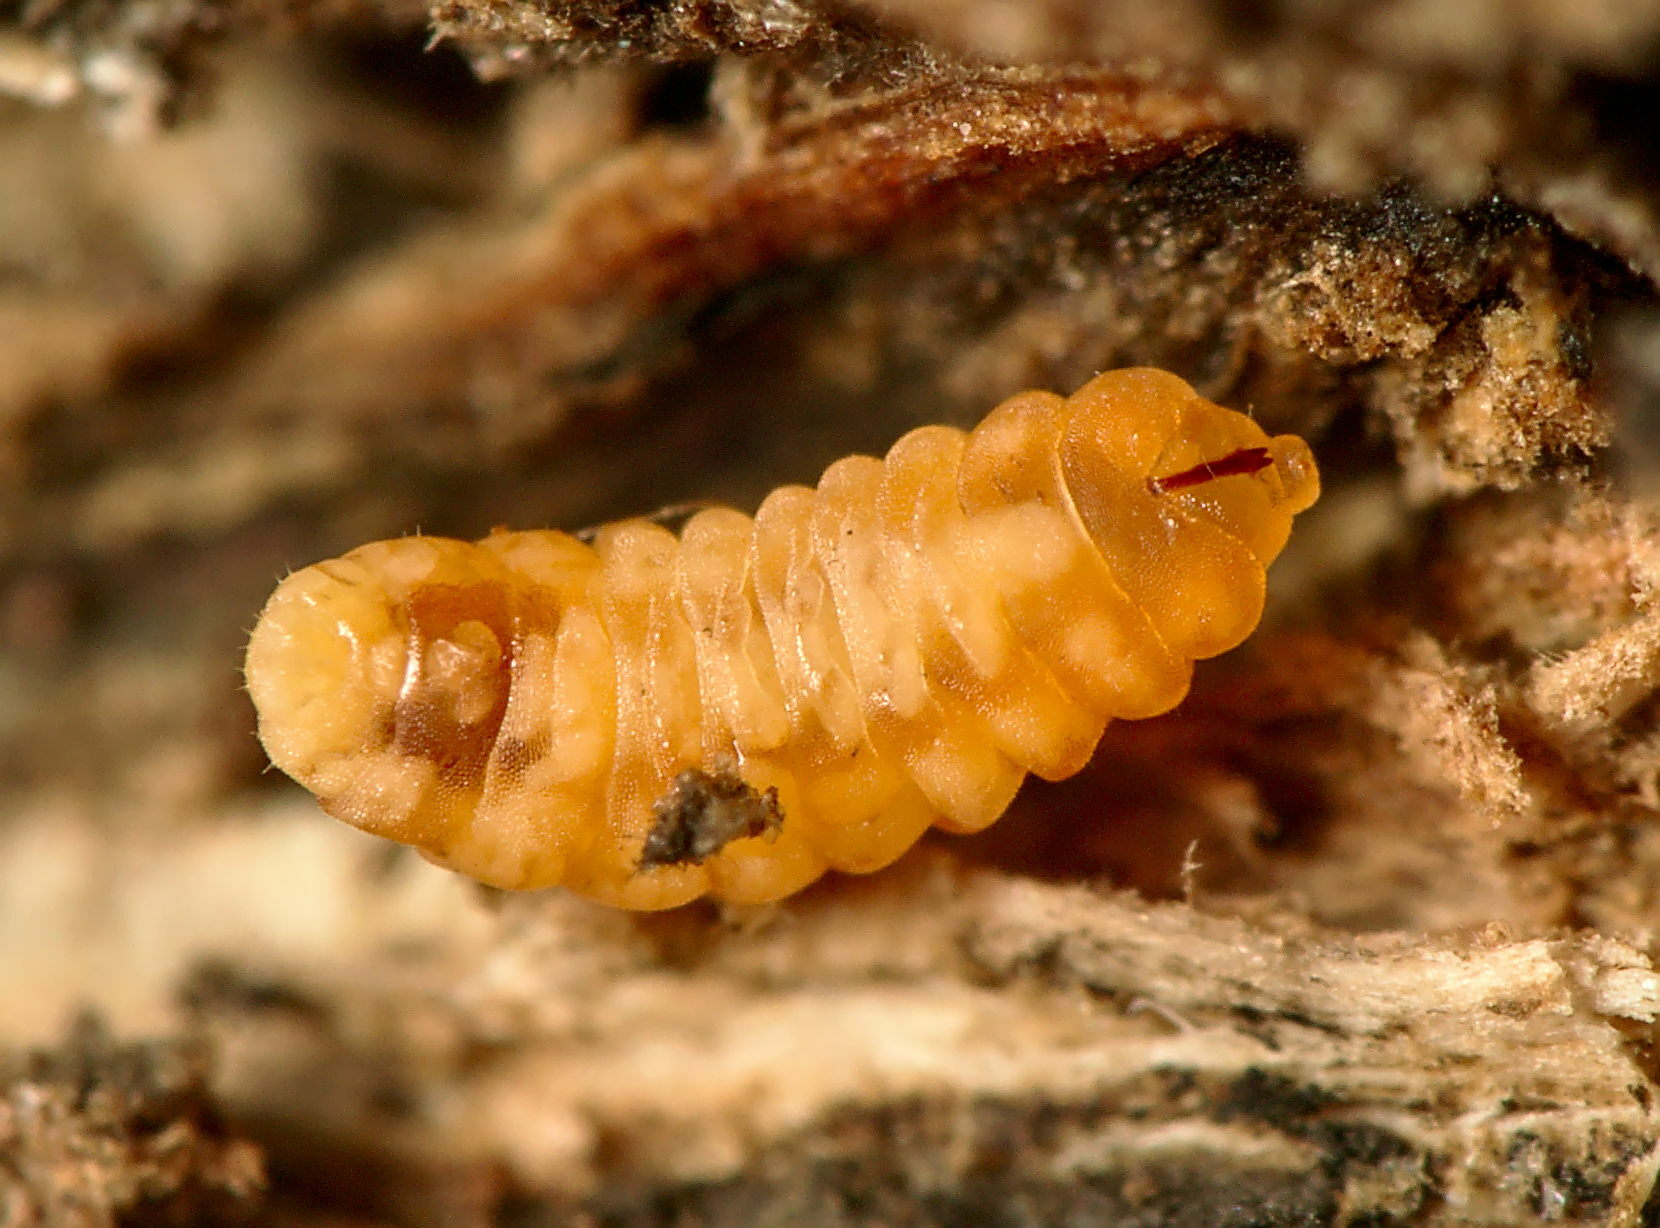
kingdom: Animalia
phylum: Arthropoda
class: Insecta
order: Diptera
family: Cecidomyiidae
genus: Lasioptera
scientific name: Lasioptera rubi
